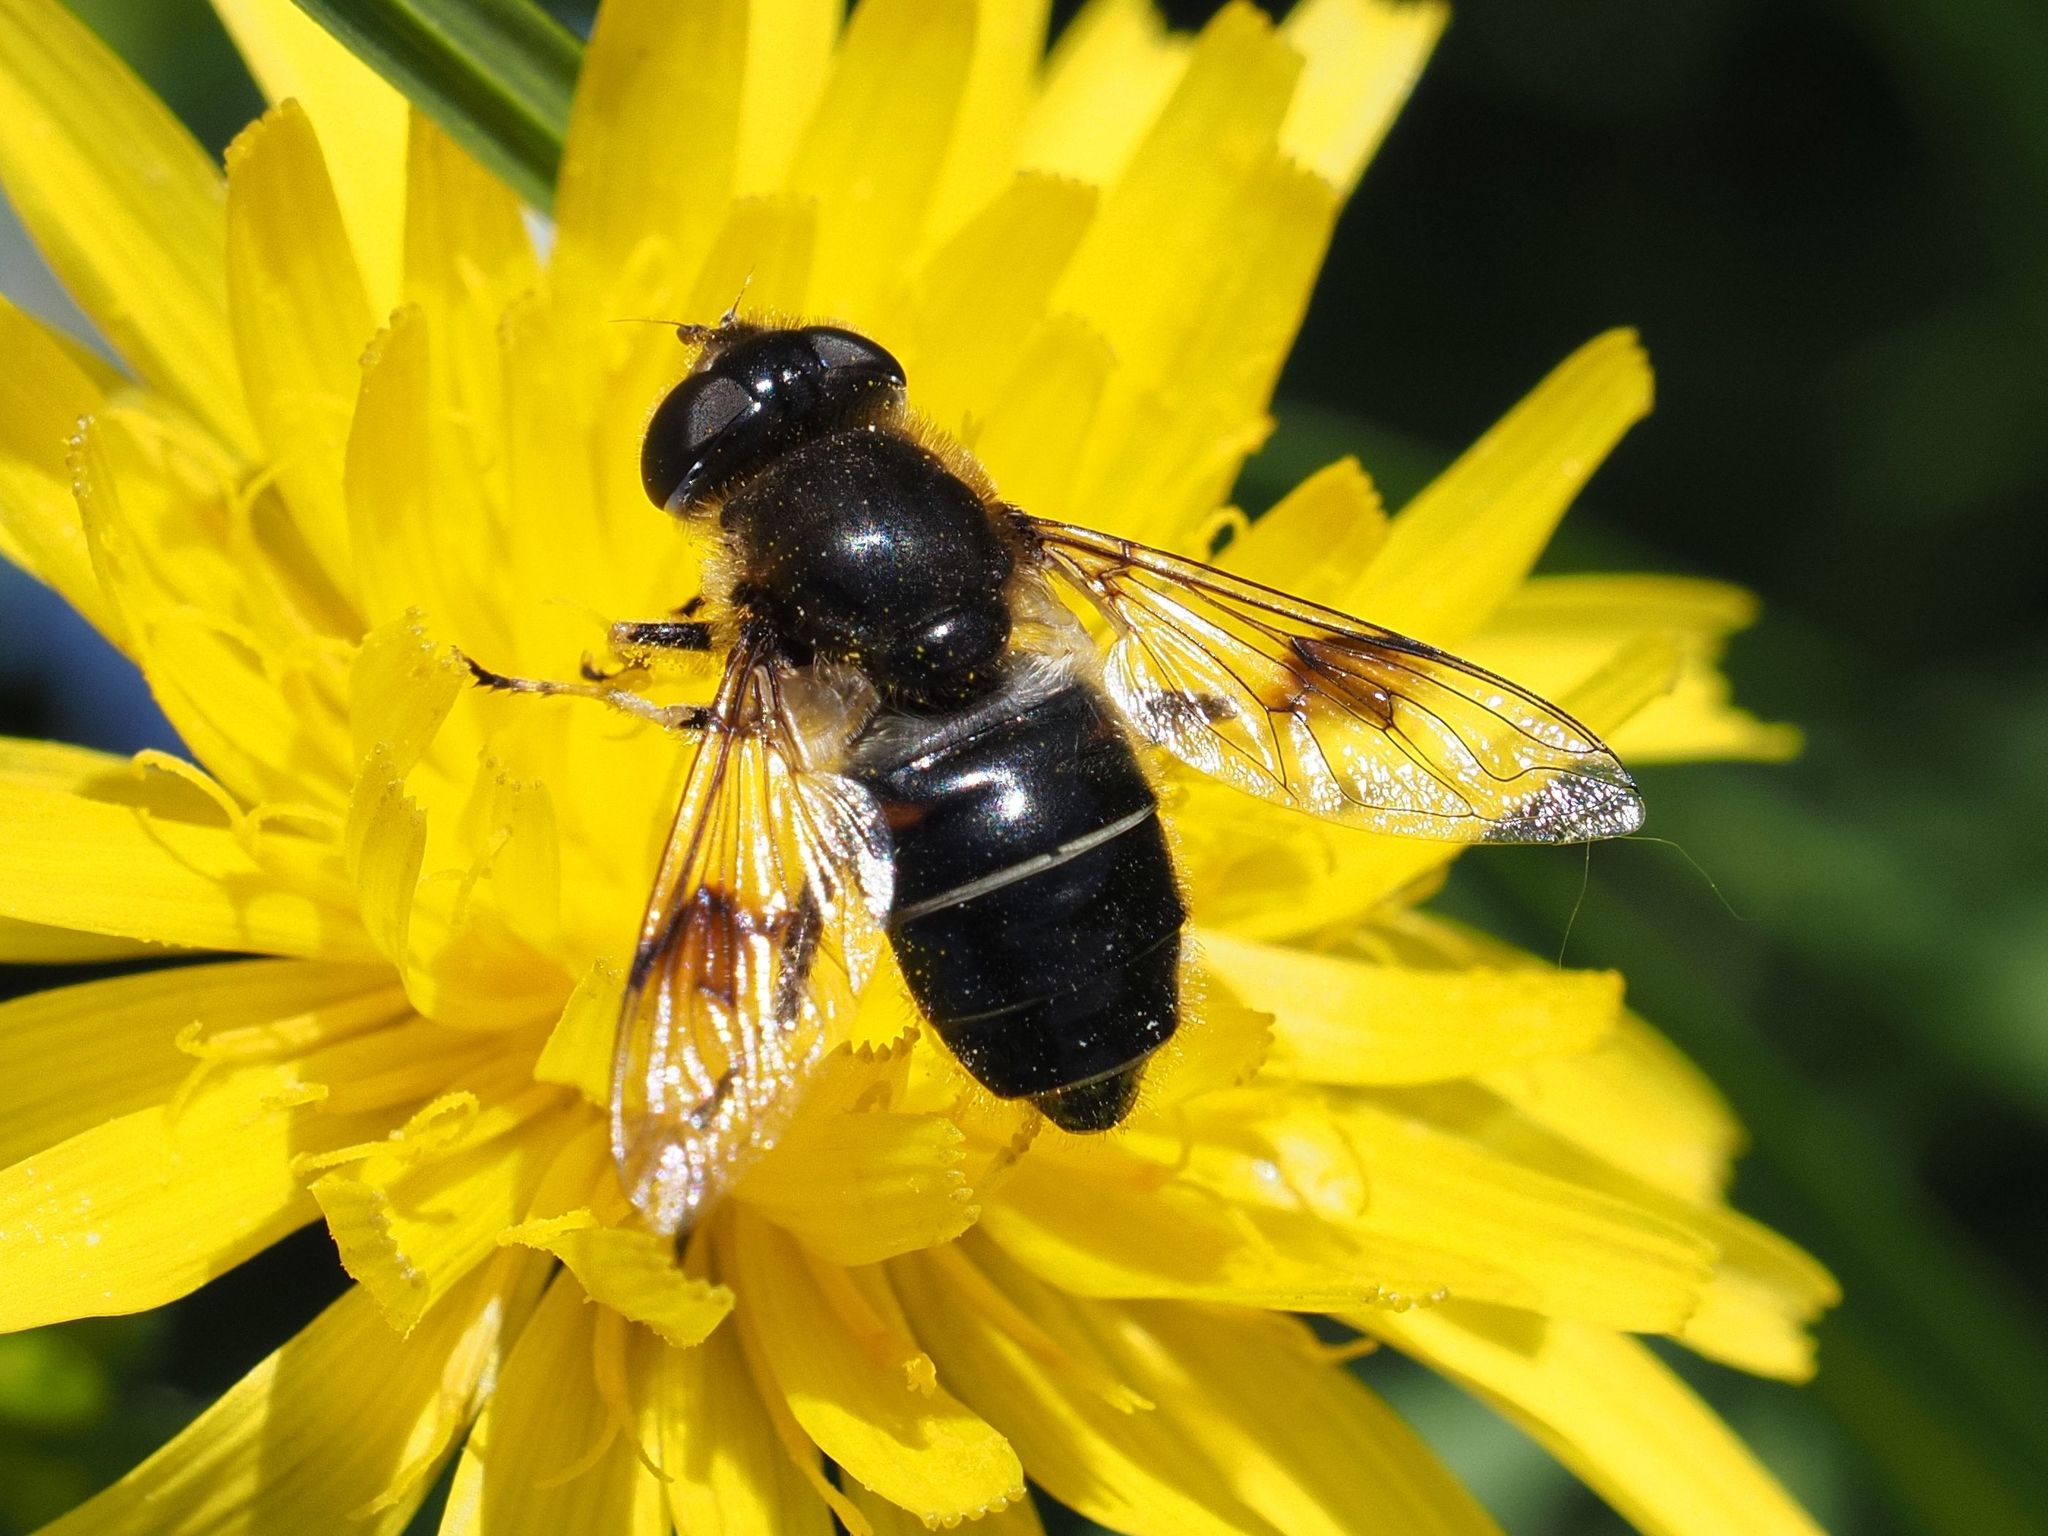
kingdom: Animalia
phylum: Arthropoda
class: Insecta
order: Diptera
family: Syrphidae
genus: Eristalis
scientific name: Eristalis rupium
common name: Hover fly
